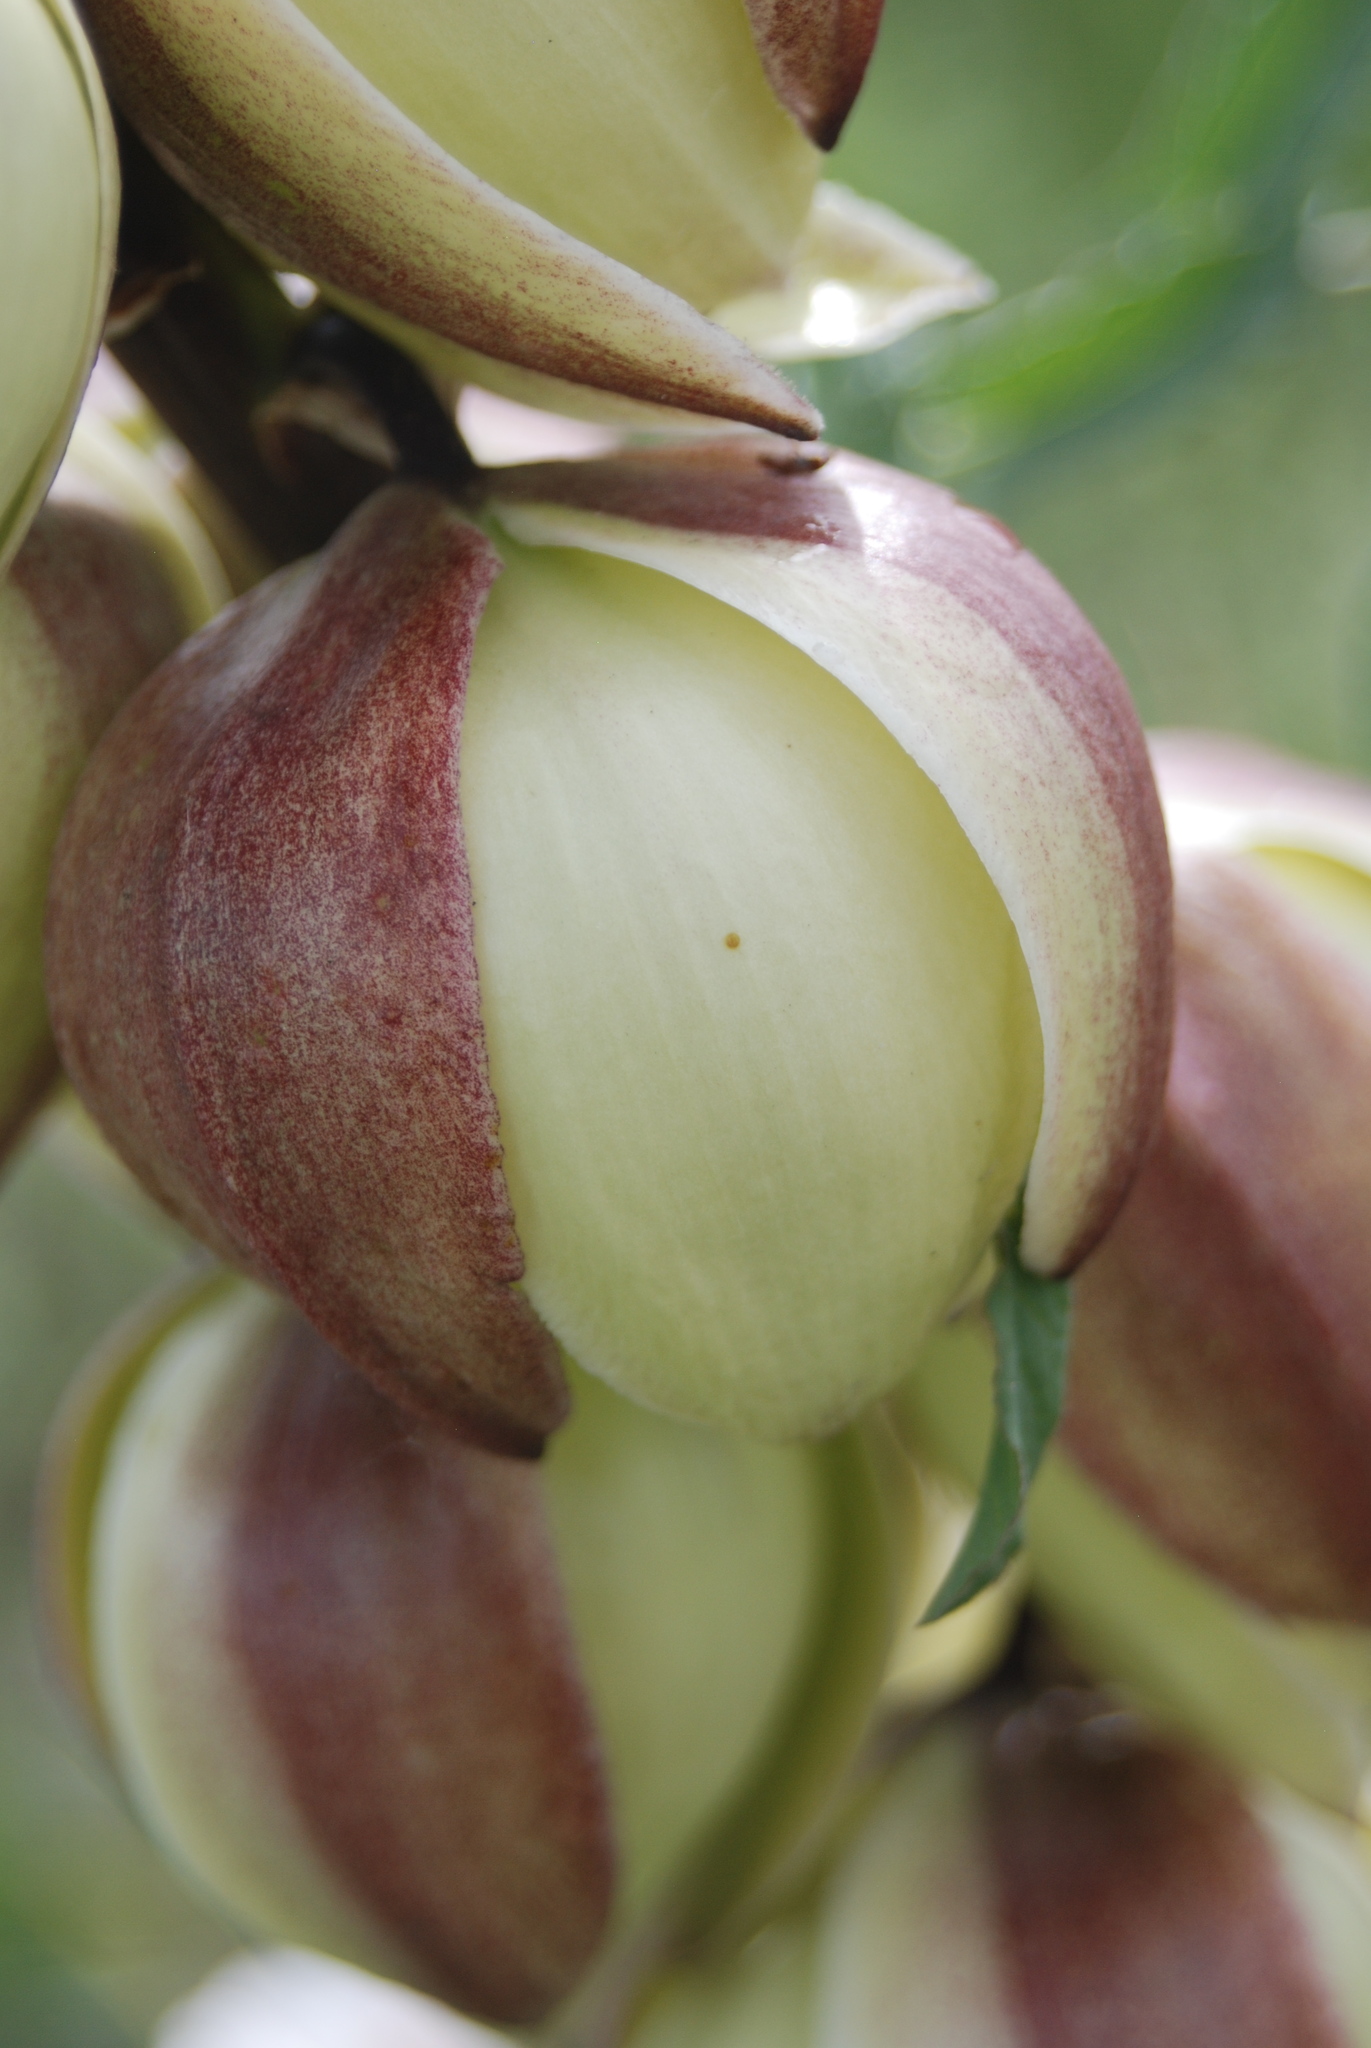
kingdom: Plantae
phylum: Tracheophyta
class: Liliopsida
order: Asparagales
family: Asparagaceae
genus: Yucca
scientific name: Yucca glauca
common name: Great plains yucca
